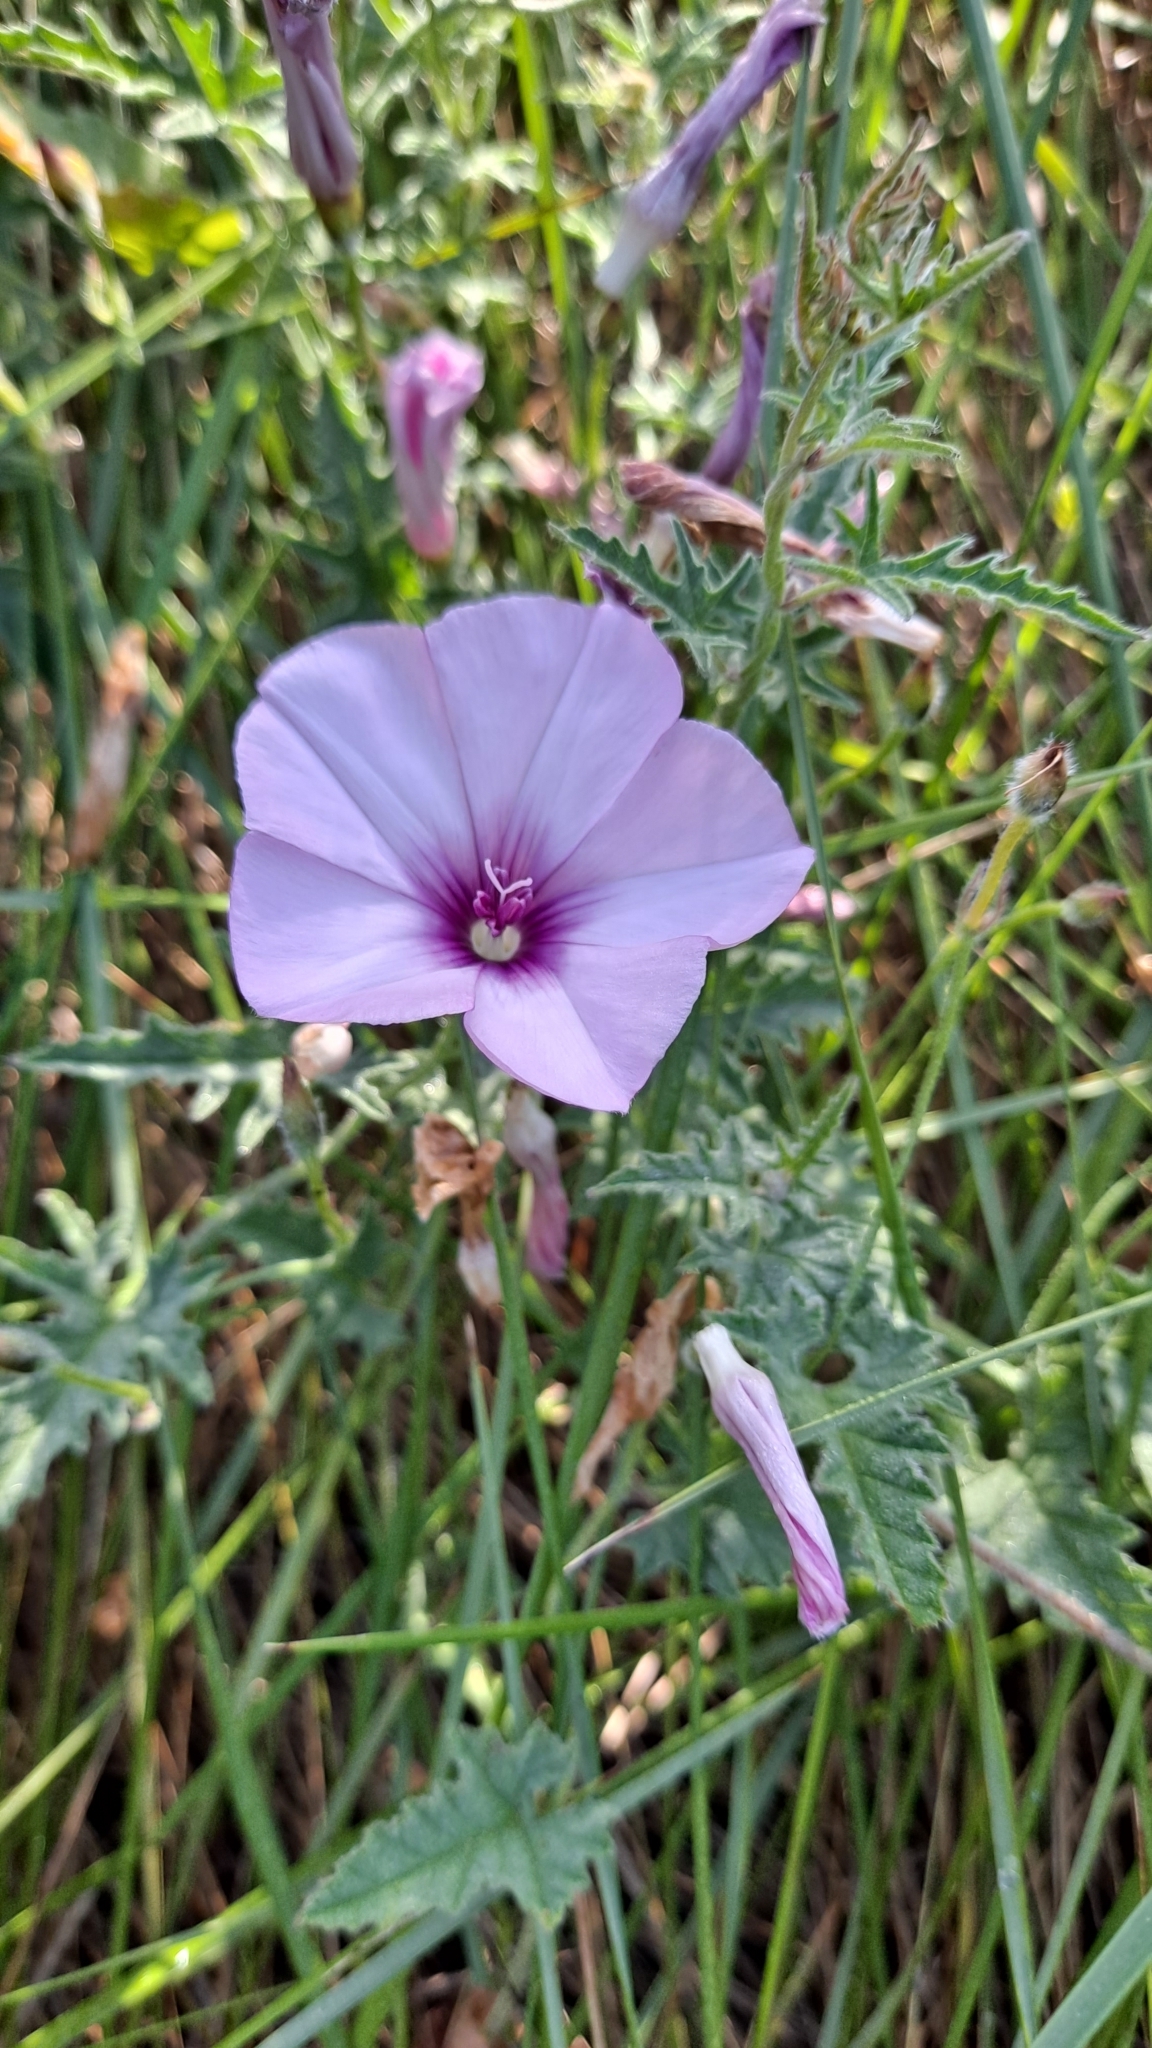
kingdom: Plantae
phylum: Tracheophyta
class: Magnoliopsida
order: Solanales
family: Convolvulaceae
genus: Convolvulus
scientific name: Convolvulus althaeoides
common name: Mallow bindweed
